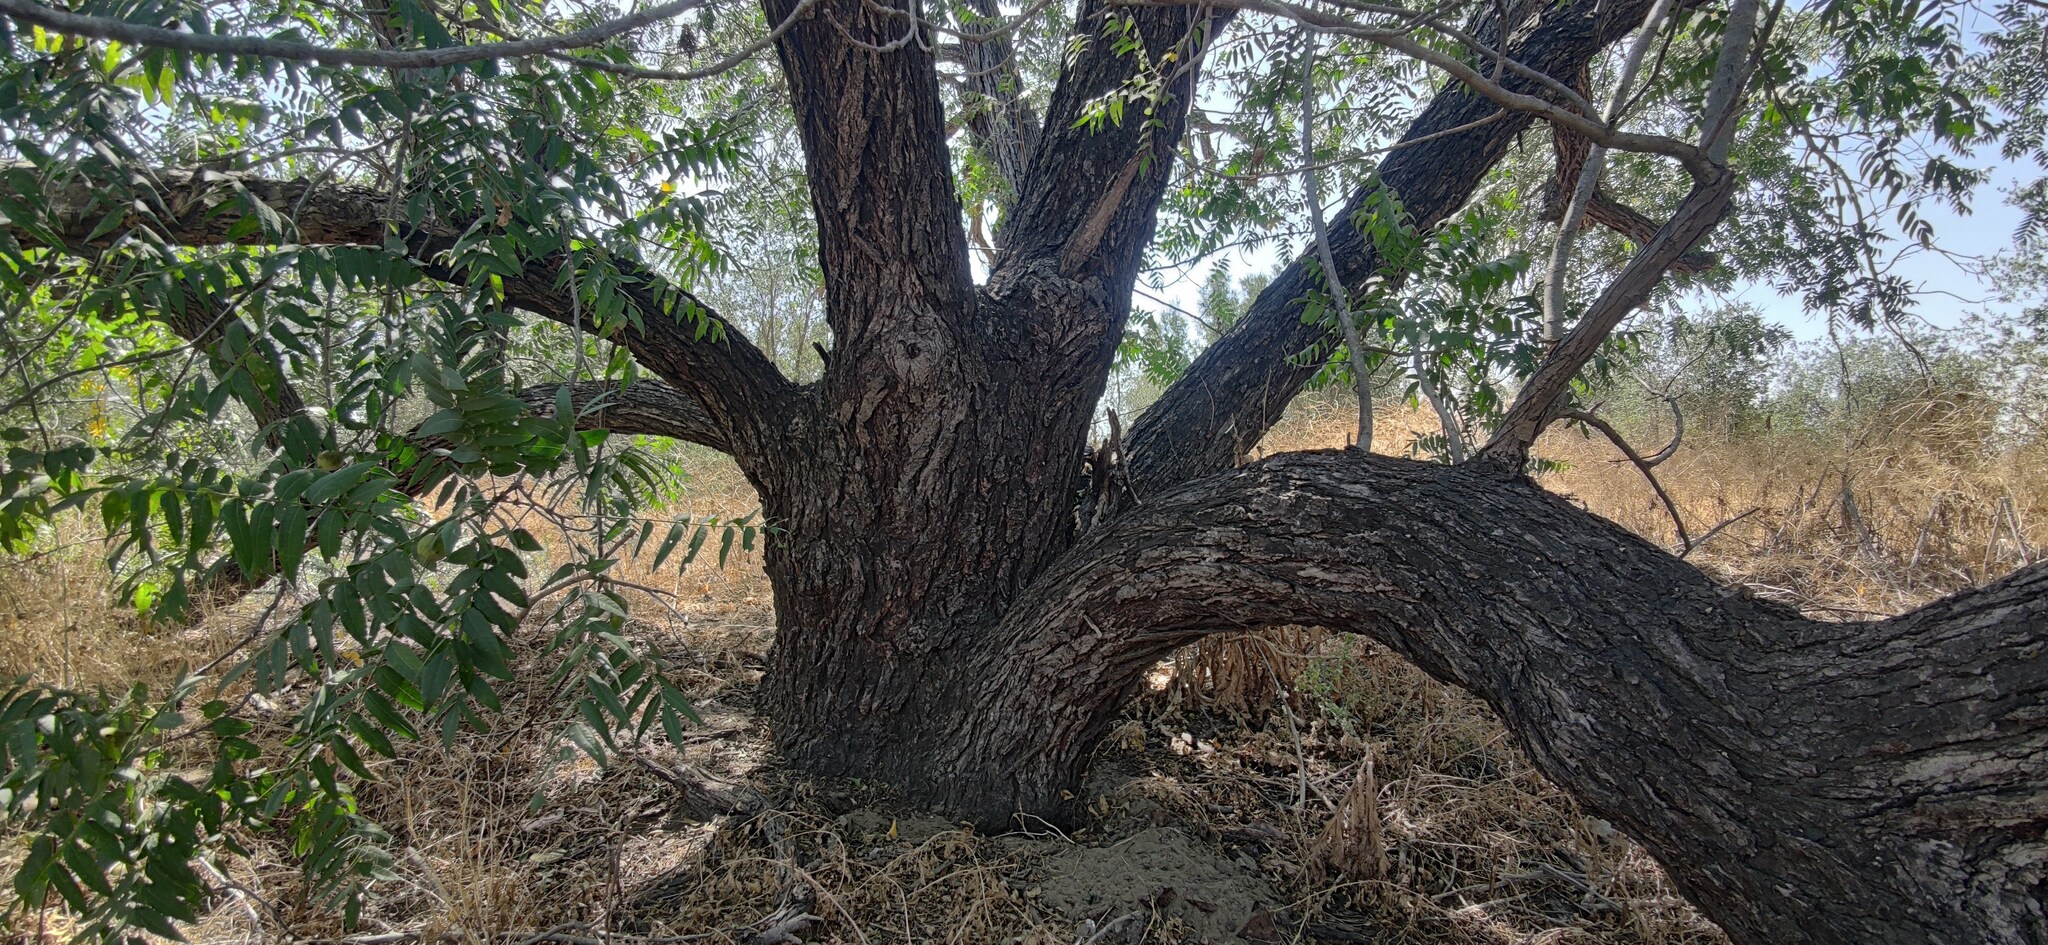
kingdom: Plantae
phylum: Tracheophyta
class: Magnoliopsida
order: Fagales
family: Juglandaceae
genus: Juglans
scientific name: Juglans californica
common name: Southern california black walnut
